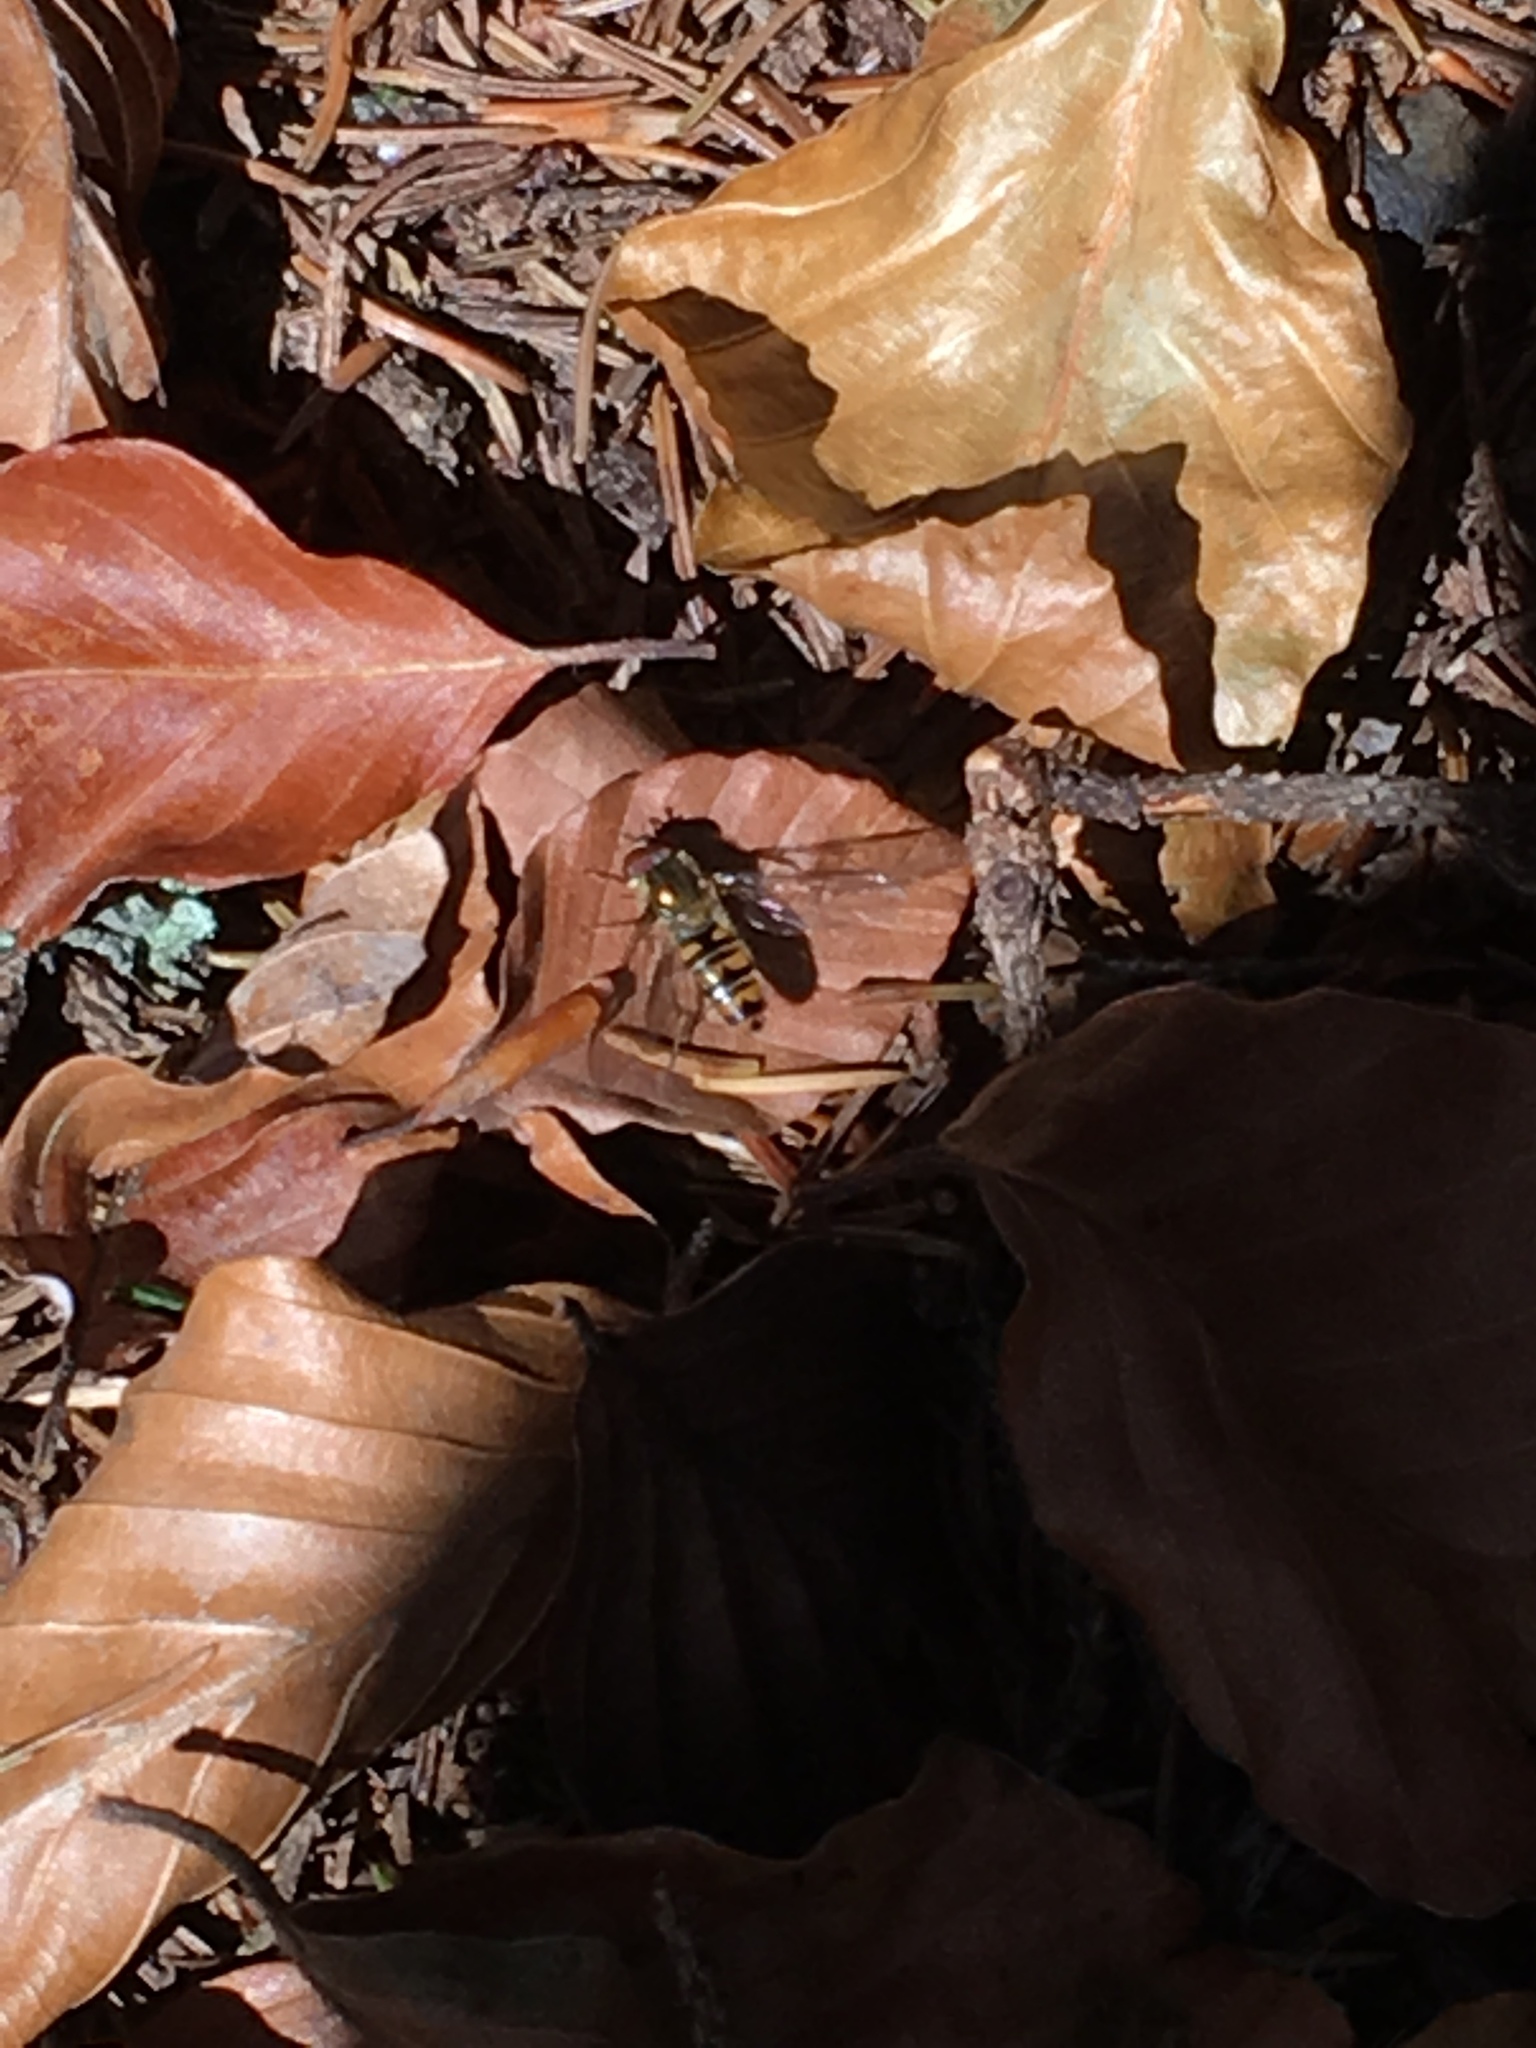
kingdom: Animalia
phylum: Arthropoda
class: Insecta
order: Diptera
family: Syrphidae
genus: Episyrphus
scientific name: Episyrphus balteatus
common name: Marmalade hoverfly
